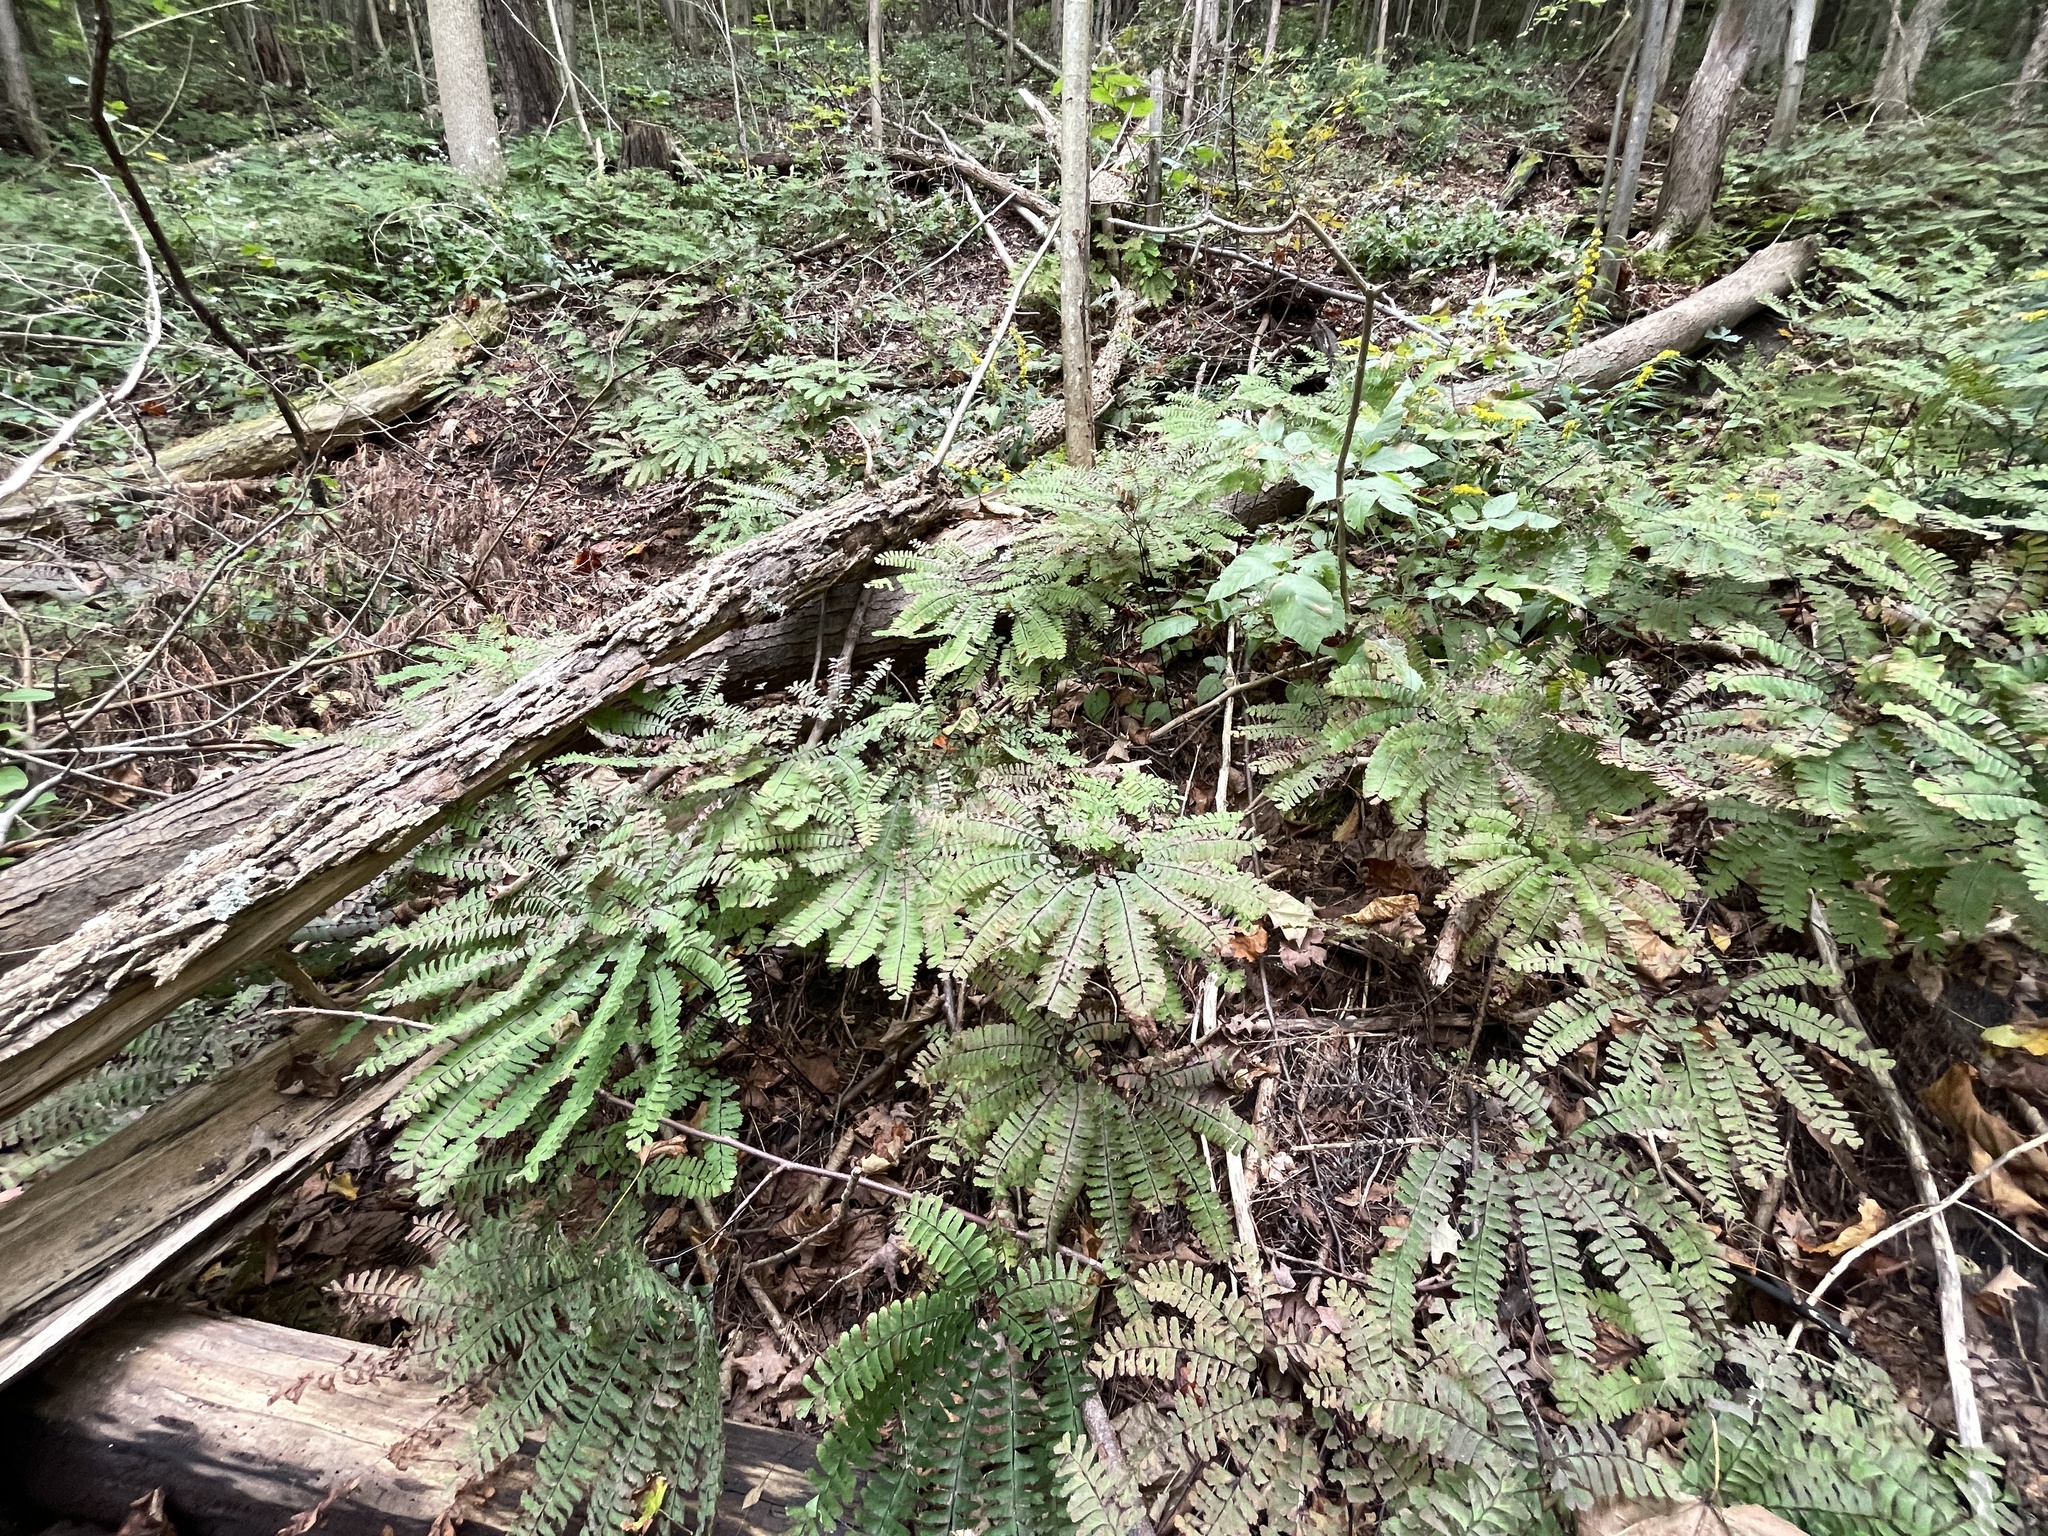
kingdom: Plantae
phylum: Tracheophyta
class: Polypodiopsida
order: Polypodiales
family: Pteridaceae
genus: Adiantum
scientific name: Adiantum pedatum
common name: Five-finger fern
